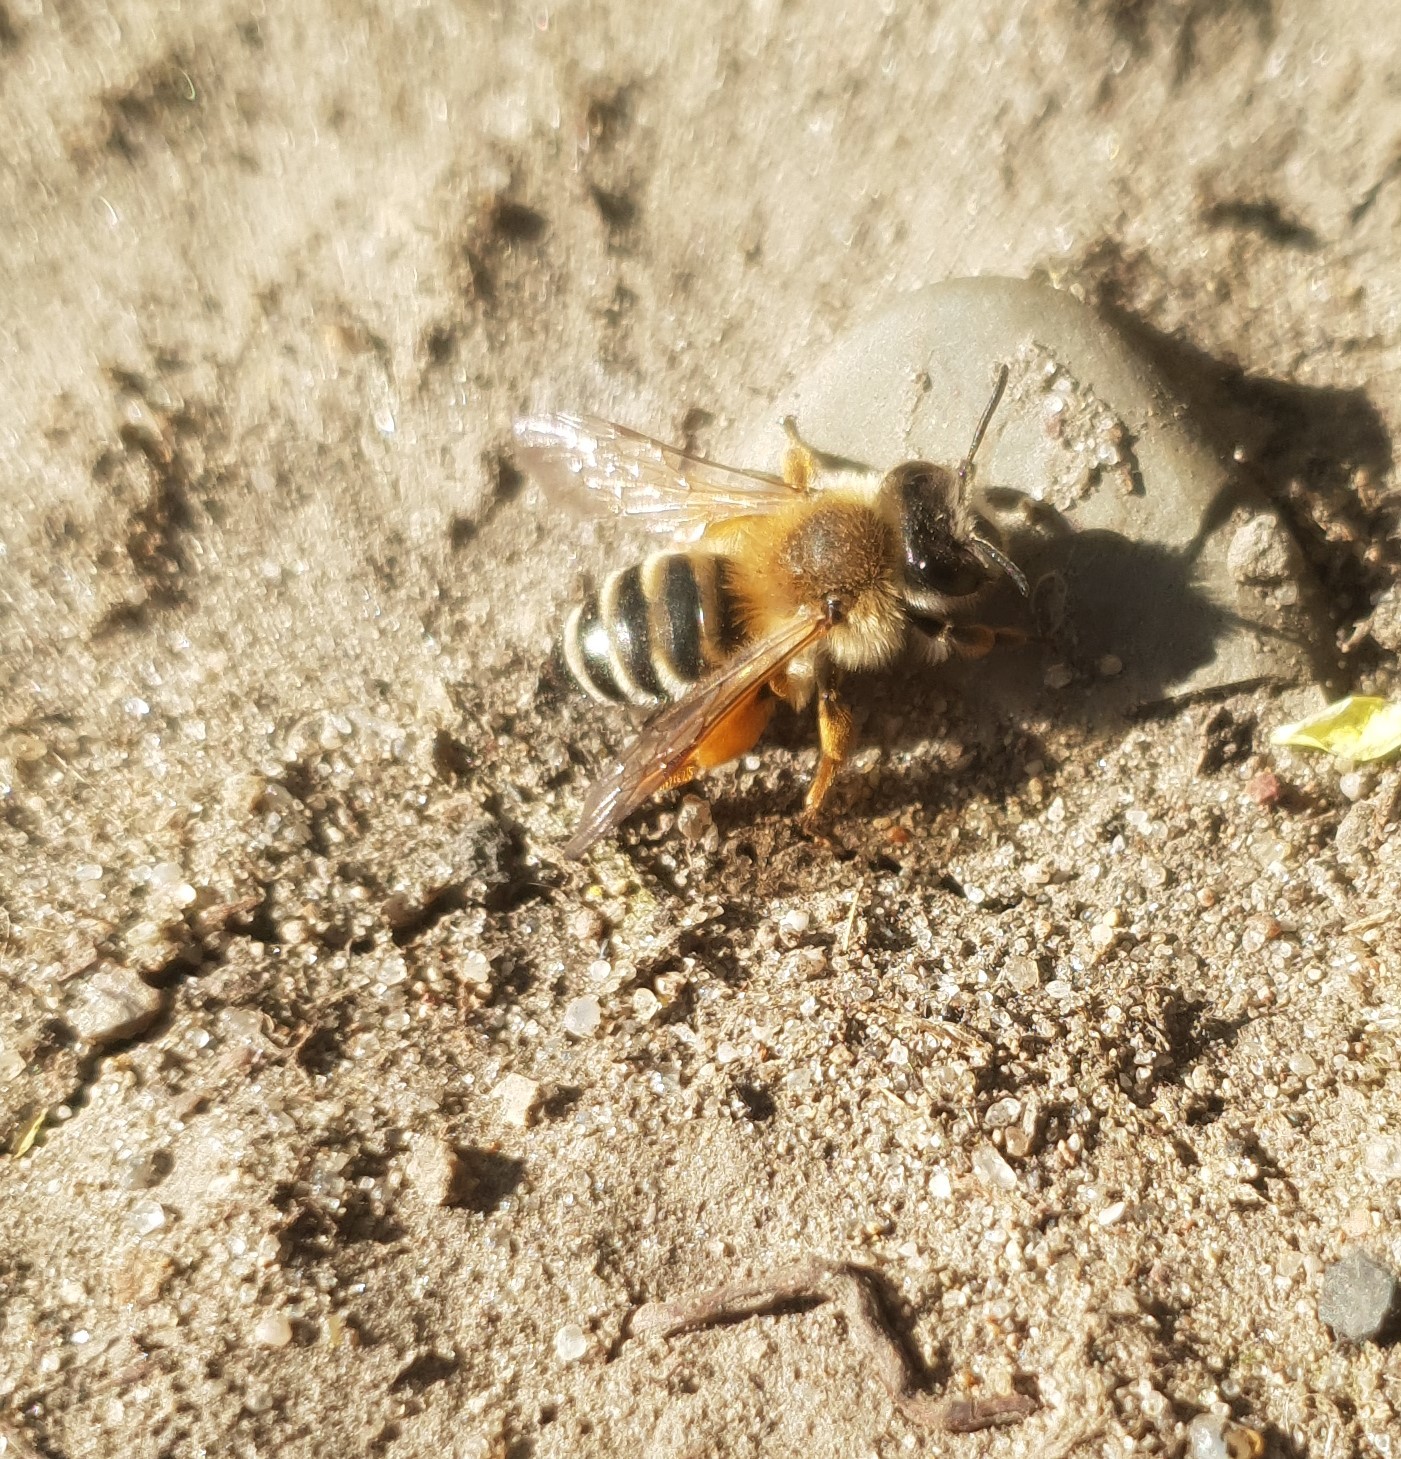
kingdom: Animalia
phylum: Arthropoda
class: Insecta
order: Hymenoptera
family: Andrenidae
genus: Andrena
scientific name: Andrena gravida
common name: White-bellied mining bee
